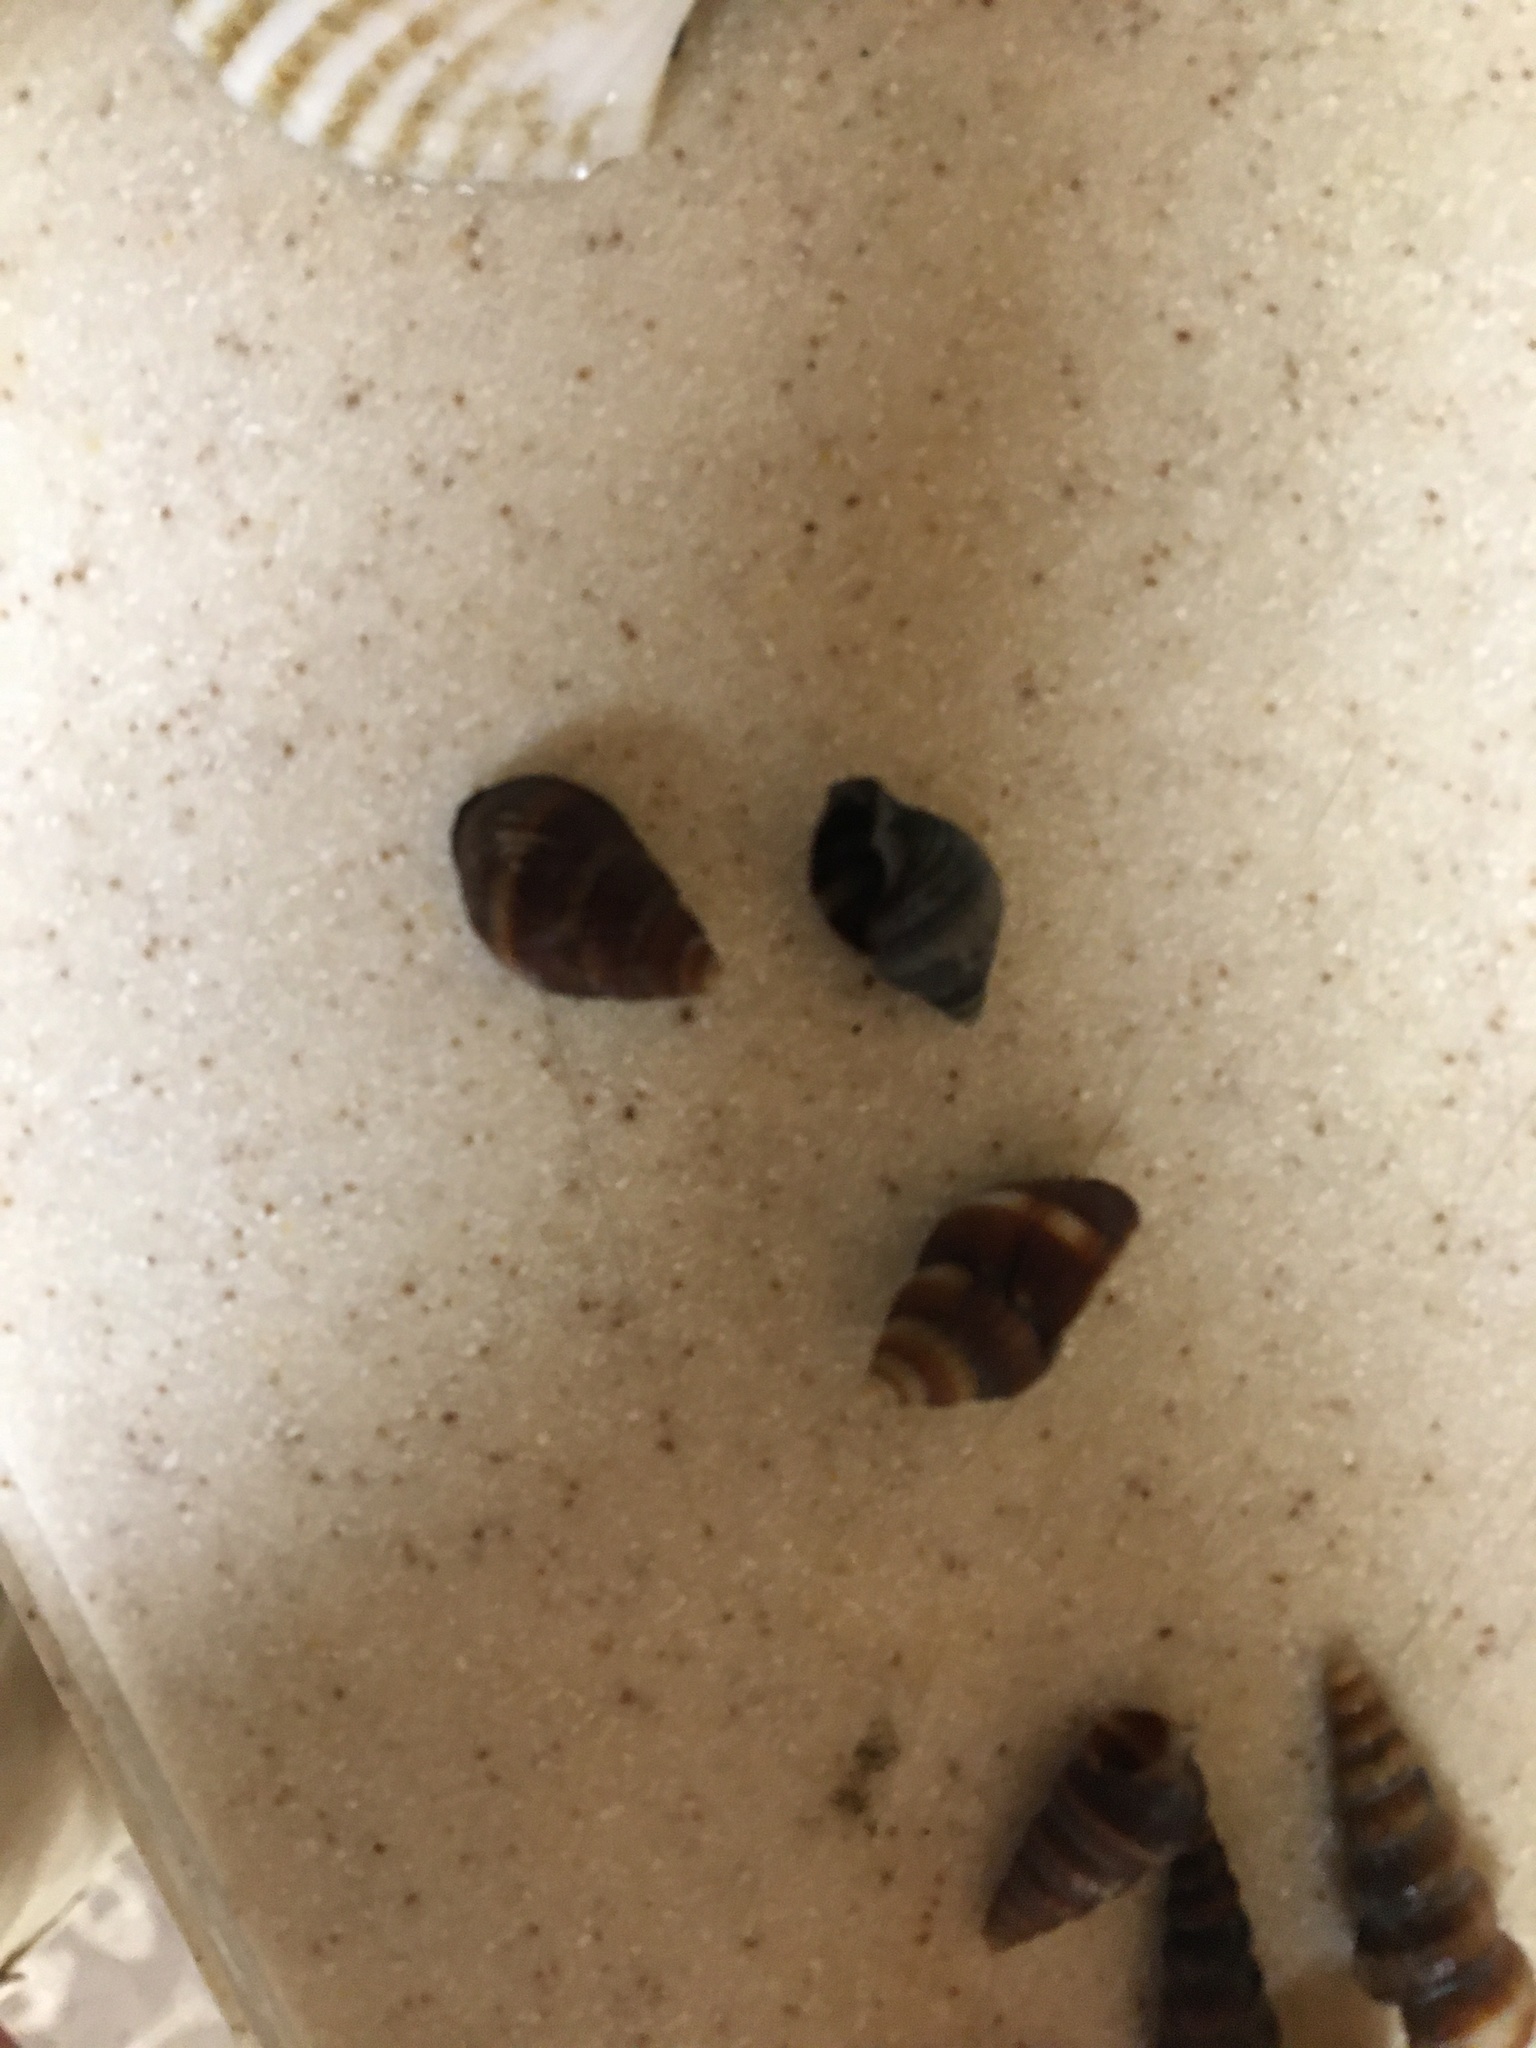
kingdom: Animalia
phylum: Mollusca
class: Gastropoda
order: Neogastropoda
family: Nassariidae
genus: Ilyanassa
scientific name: Ilyanassa obsoleta
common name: Eastern mudsnail
